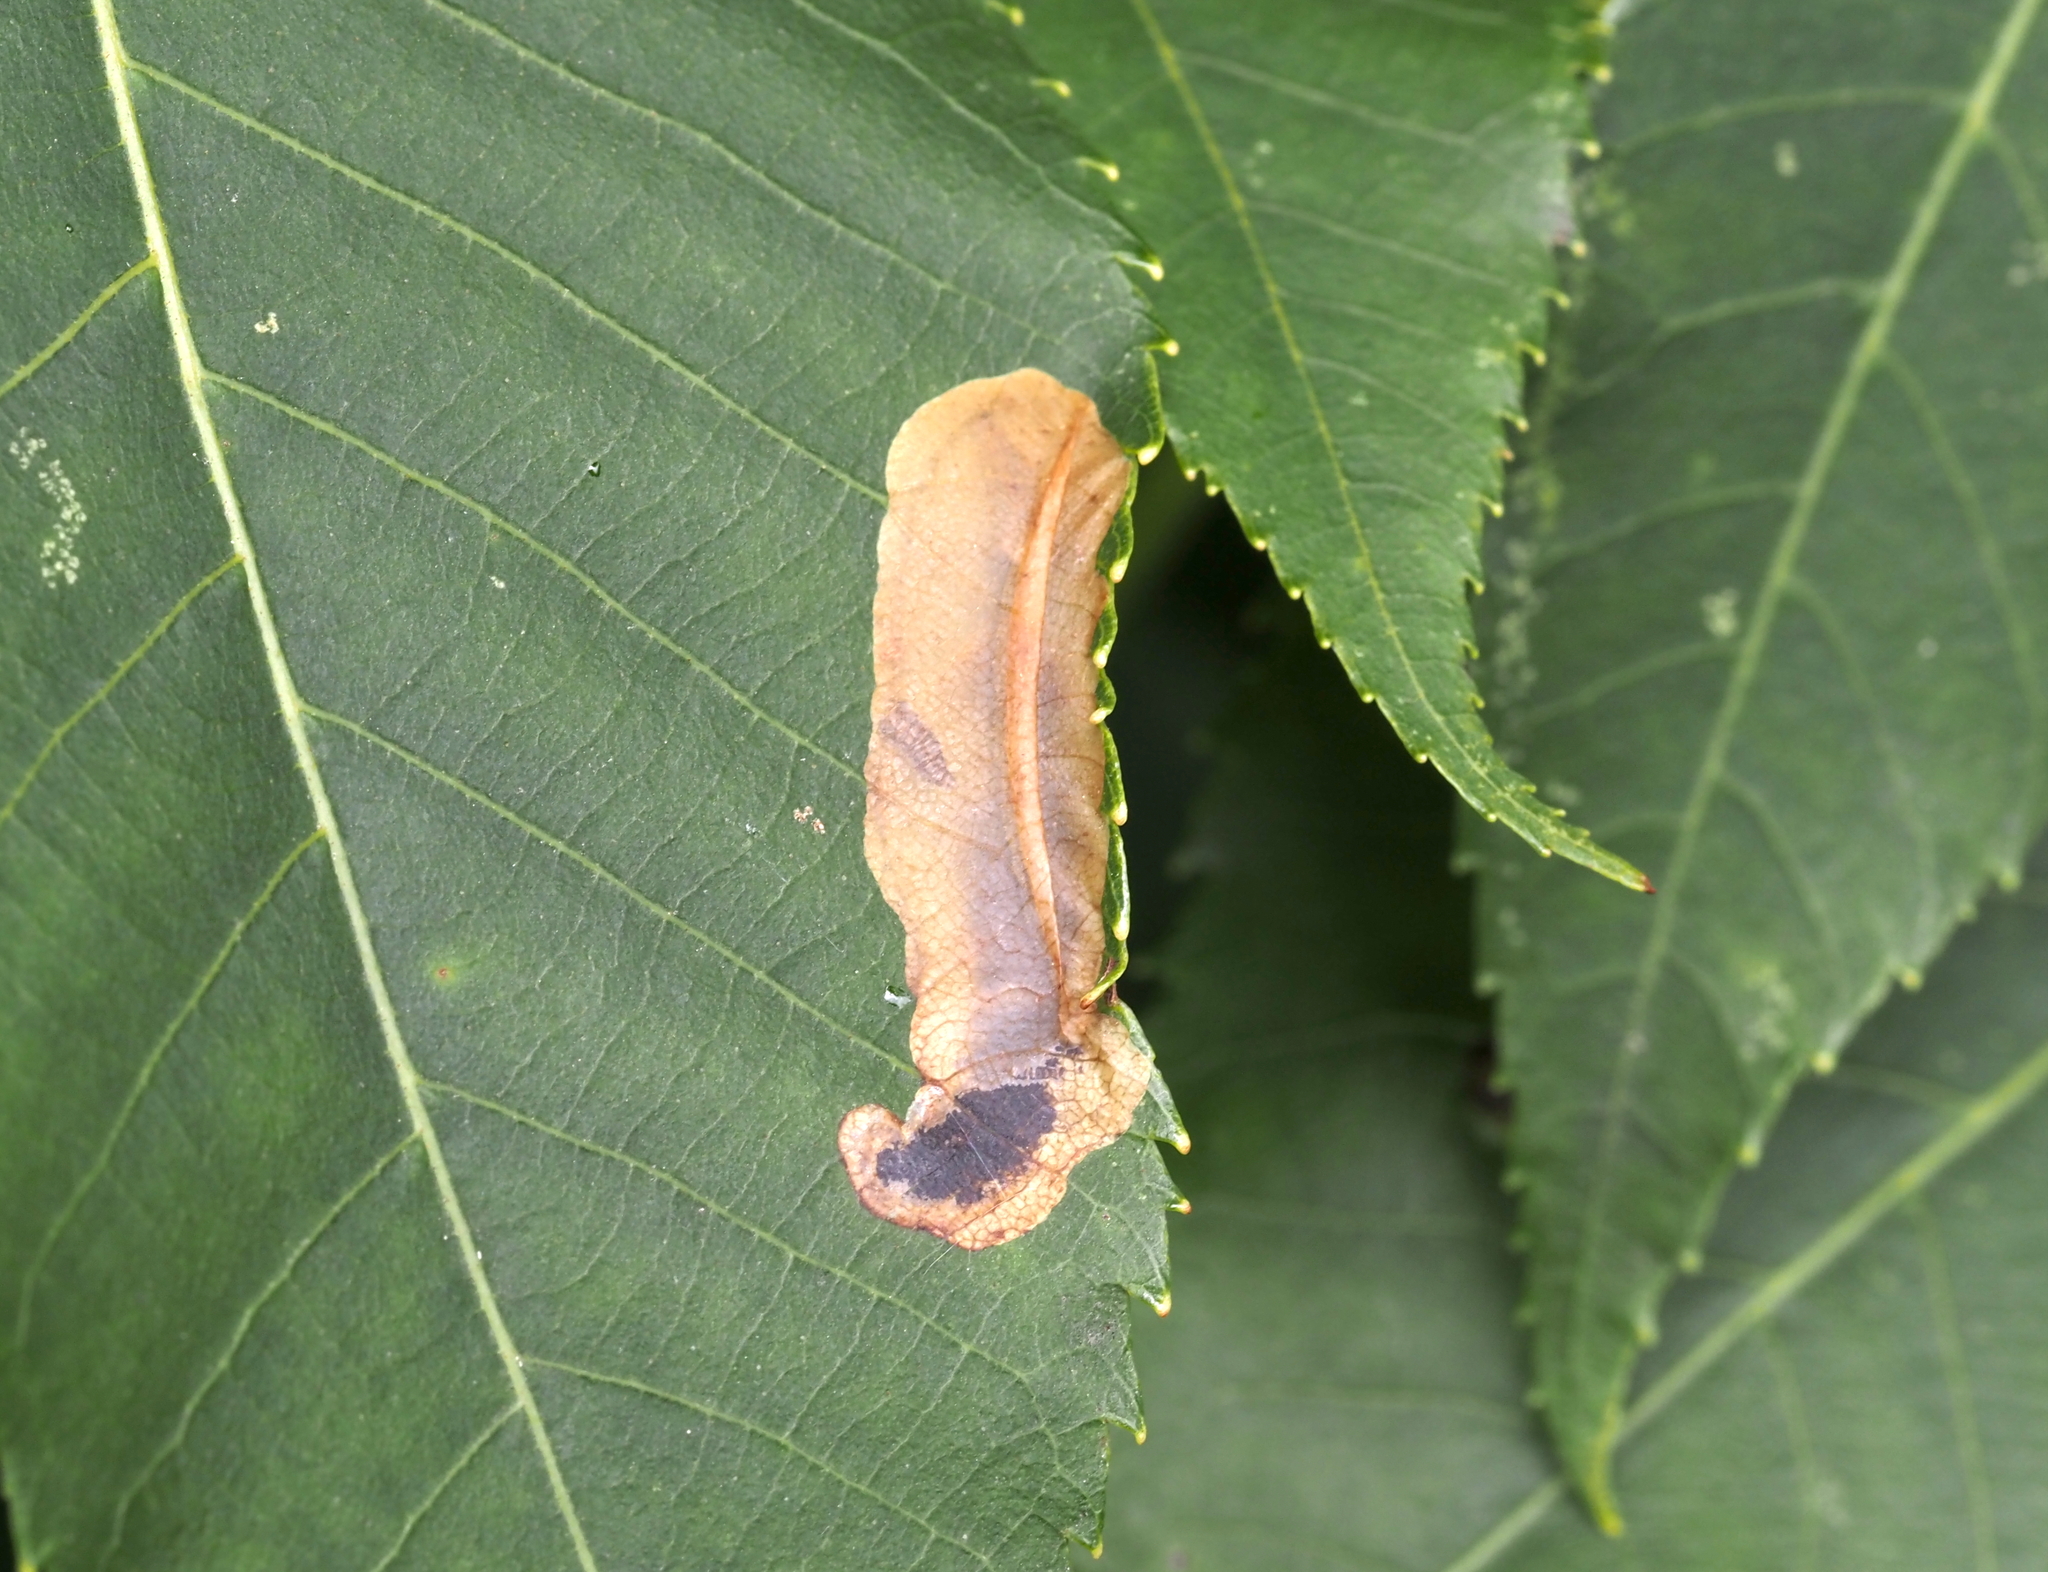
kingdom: Animalia
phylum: Arthropoda
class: Insecta
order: Lepidoptera
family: Gracillariidae
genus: Cameraria
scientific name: Cameraria caryaefoliella
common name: Pecan leafminer moth
